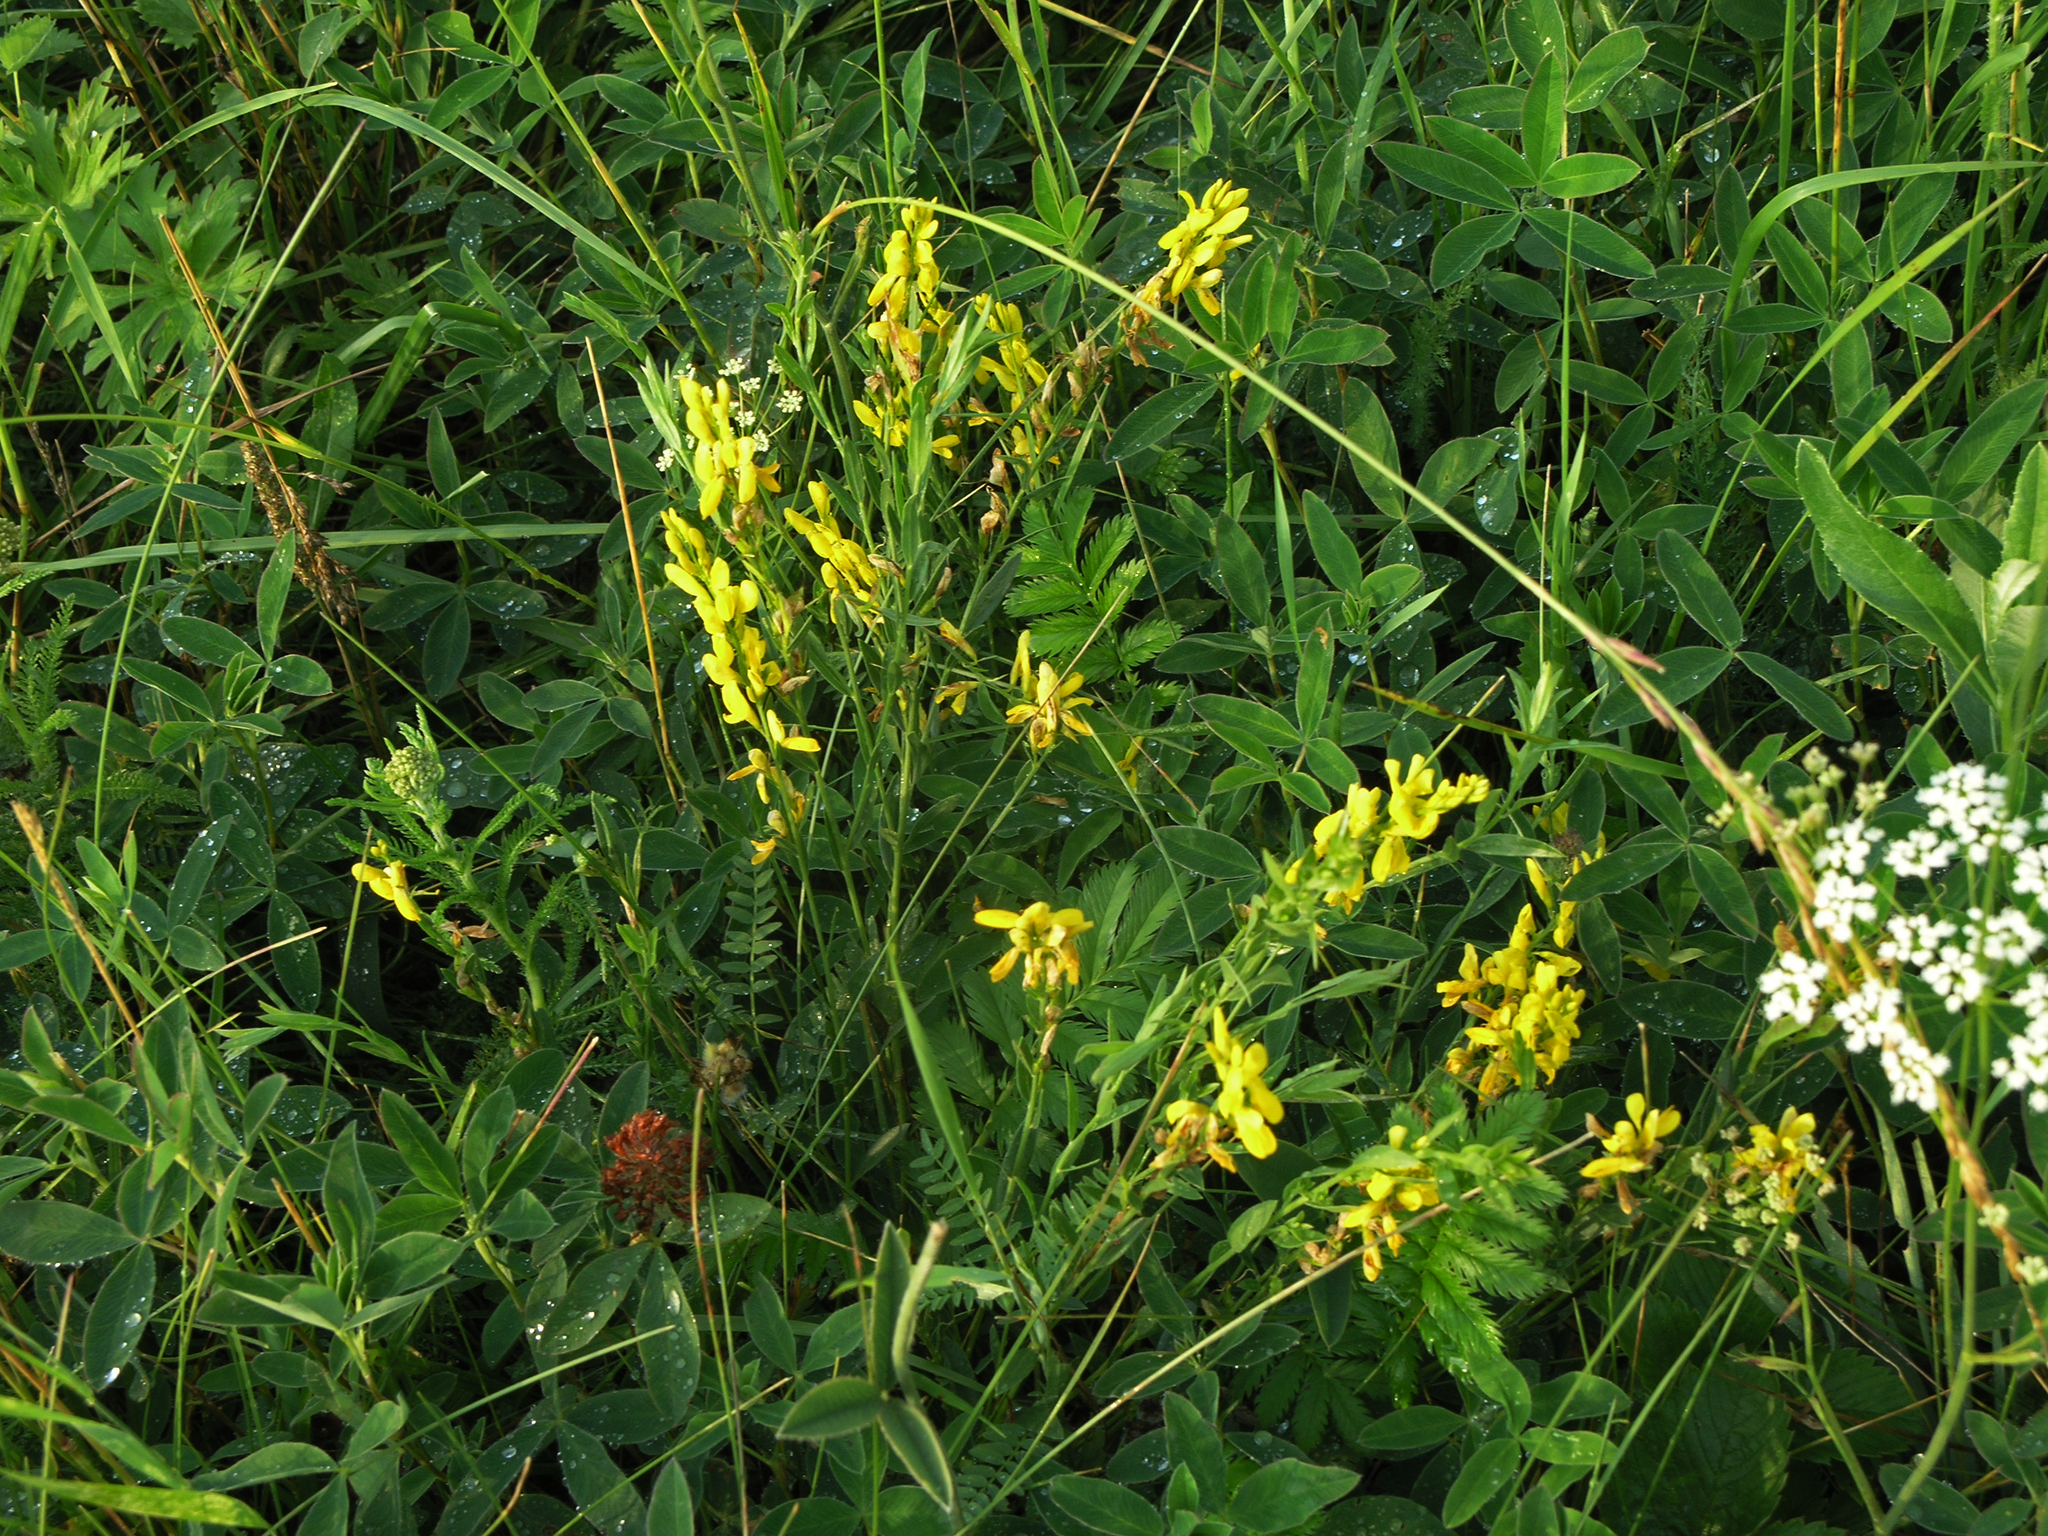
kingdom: Plantae
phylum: Tracheophyta
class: Magnoliopsida
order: Fabales
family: Fabaceae
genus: Genista
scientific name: Genista tinctoria
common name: Dyer's greenweed
